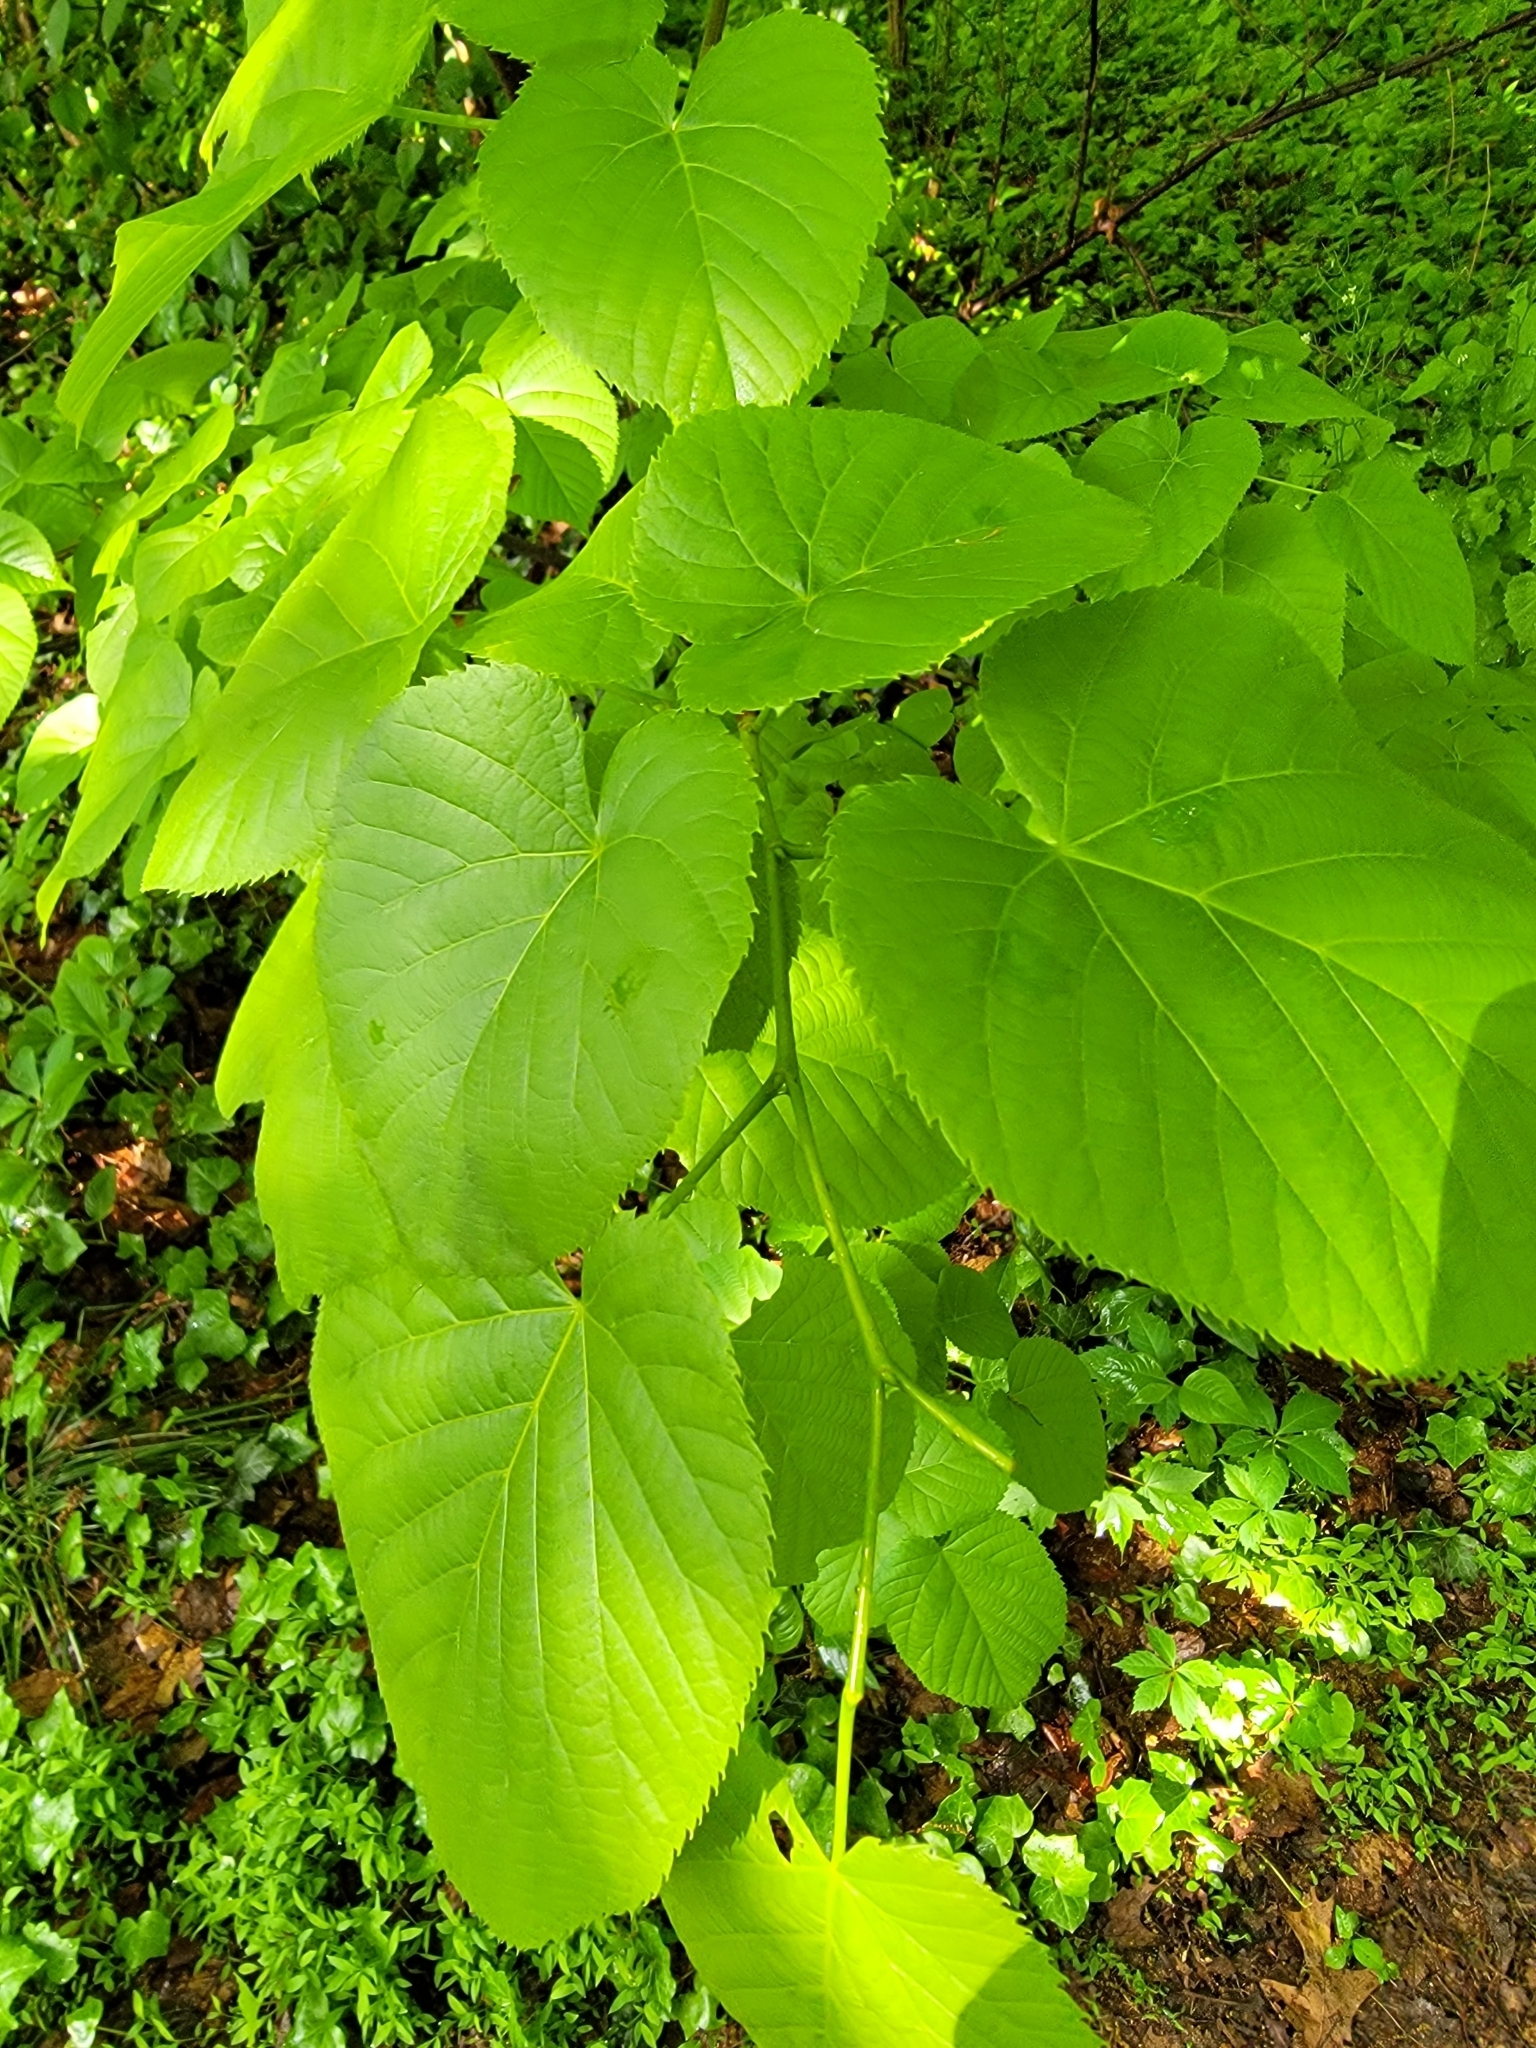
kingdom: Plantae
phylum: Tracheophyta
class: Magnoliopsida
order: Malvales
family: Malvaceae
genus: Tilia
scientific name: Tilia americana
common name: Basswood
